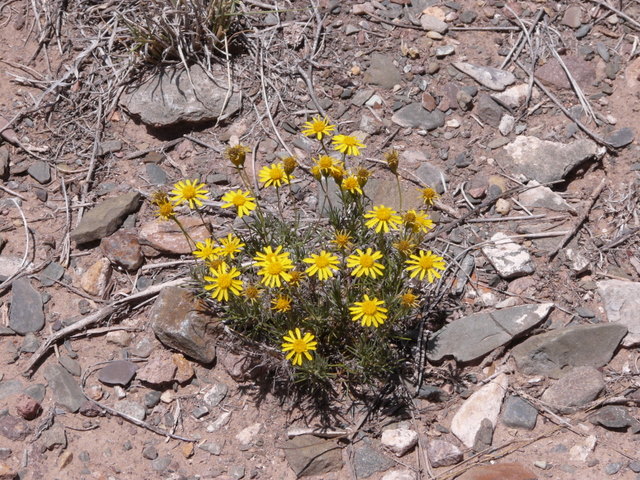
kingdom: Plantae
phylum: Tracheophyta
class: Magnoliopsida
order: Asterales
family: Asteraceae
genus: Thymophylla
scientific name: Thymophylla pentachaeta
